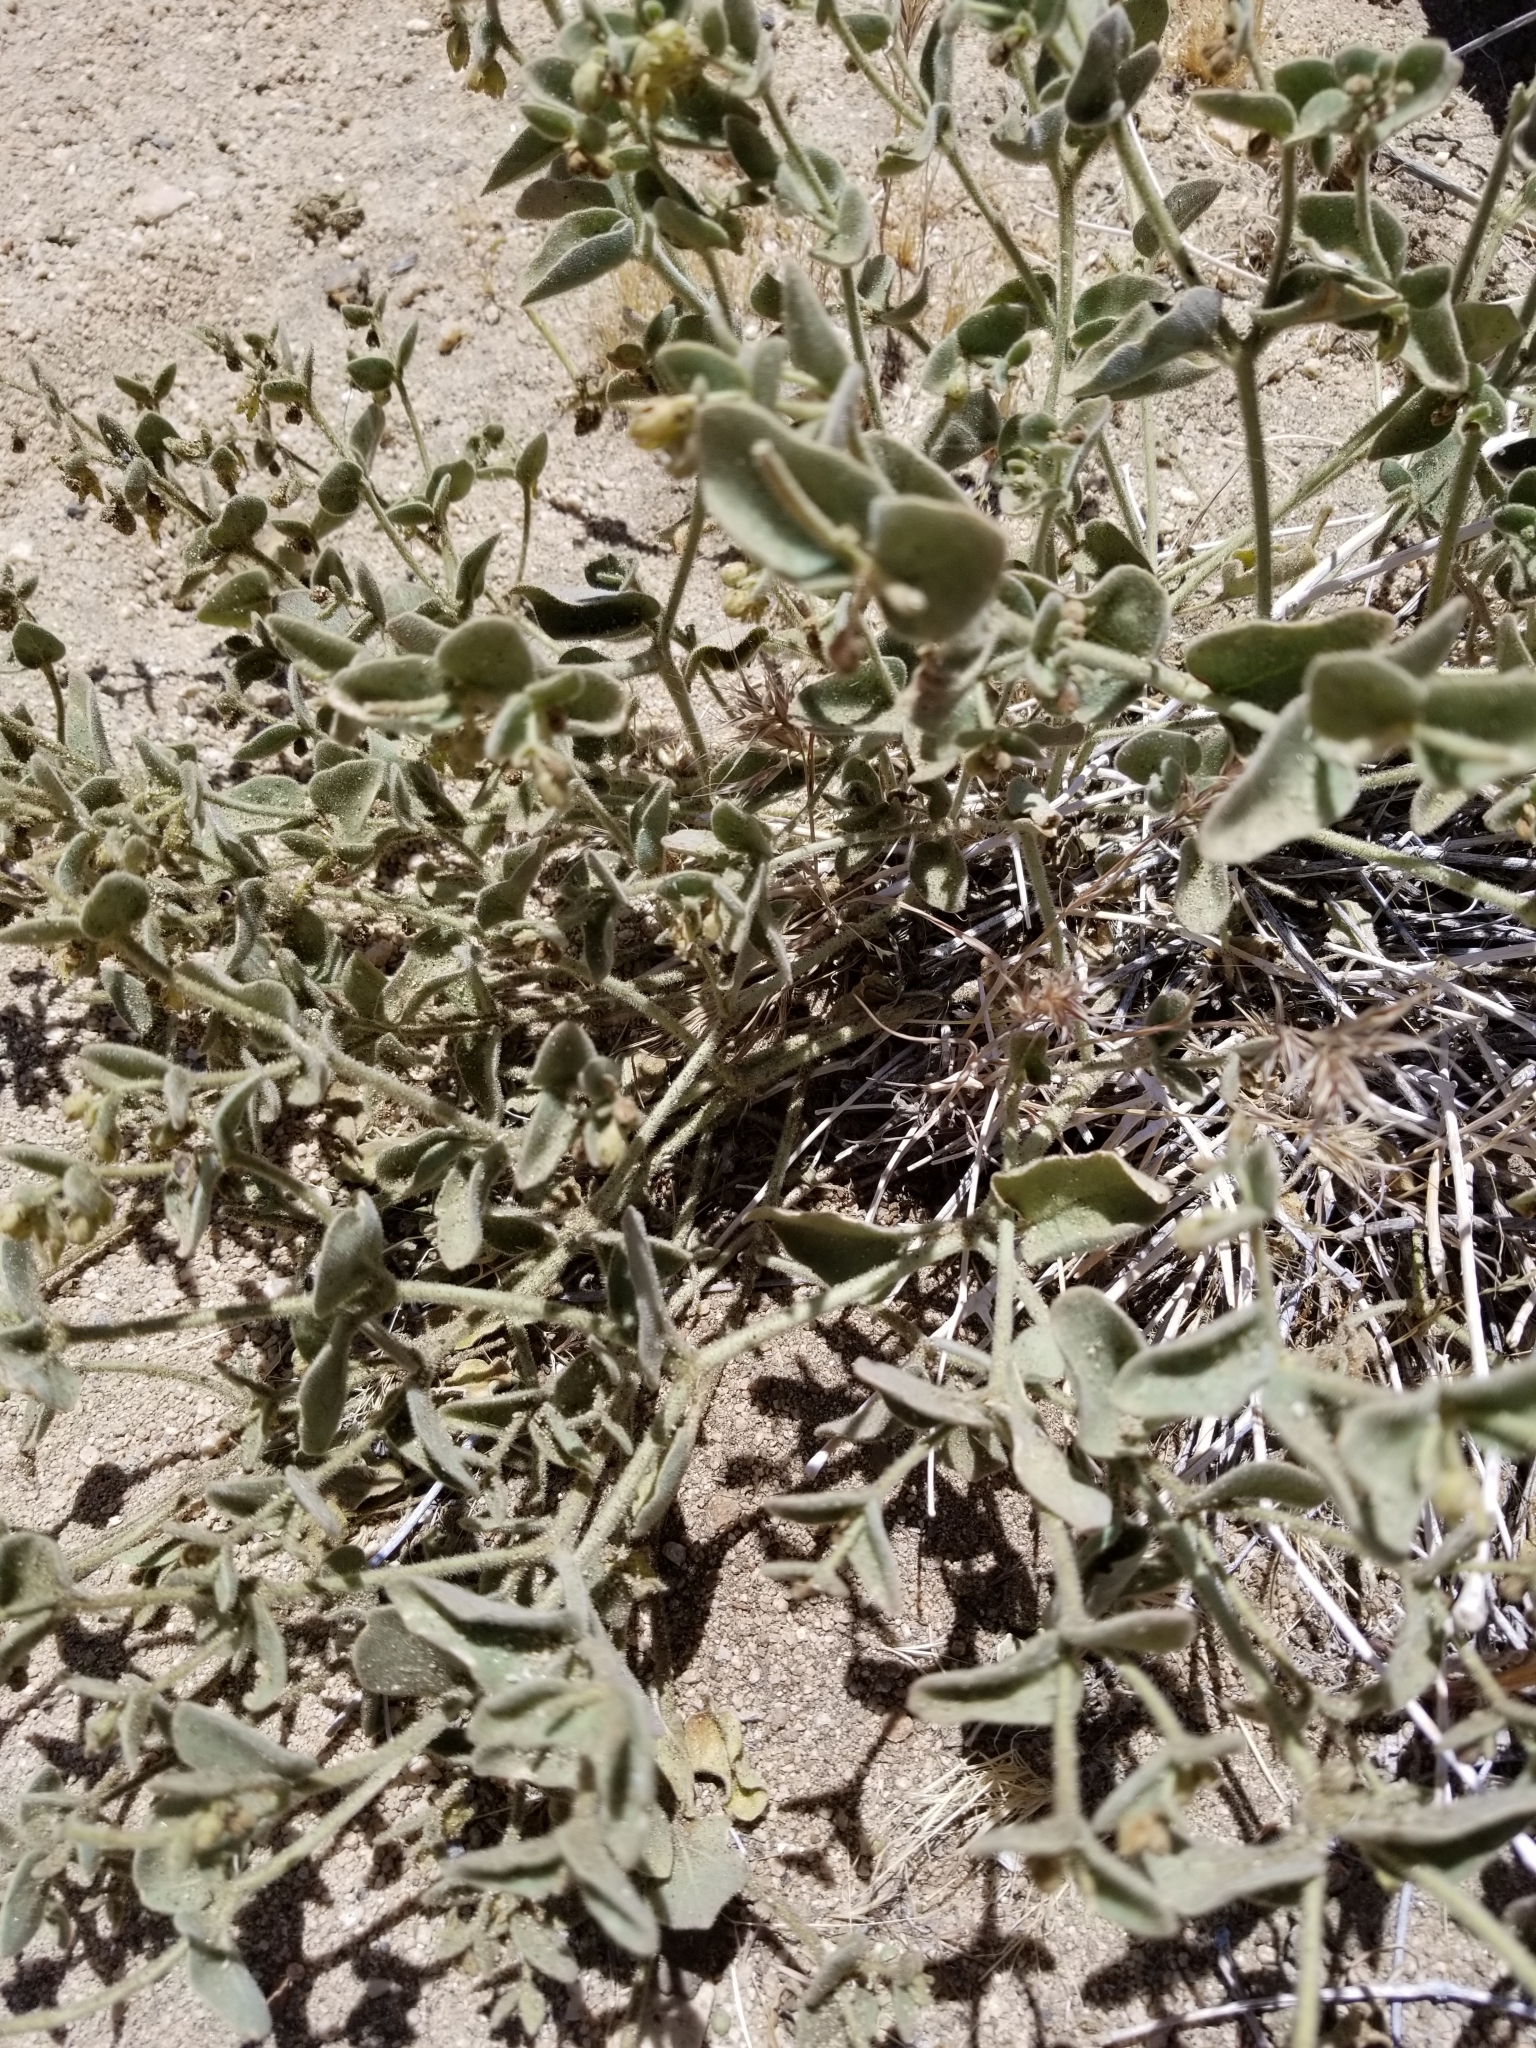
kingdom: Plantae
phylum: Tracheophyta
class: Magnoliopsida
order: Caryophyllales
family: Nyctaginaceae
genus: Mirabilis
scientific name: Mirabilis laevis
